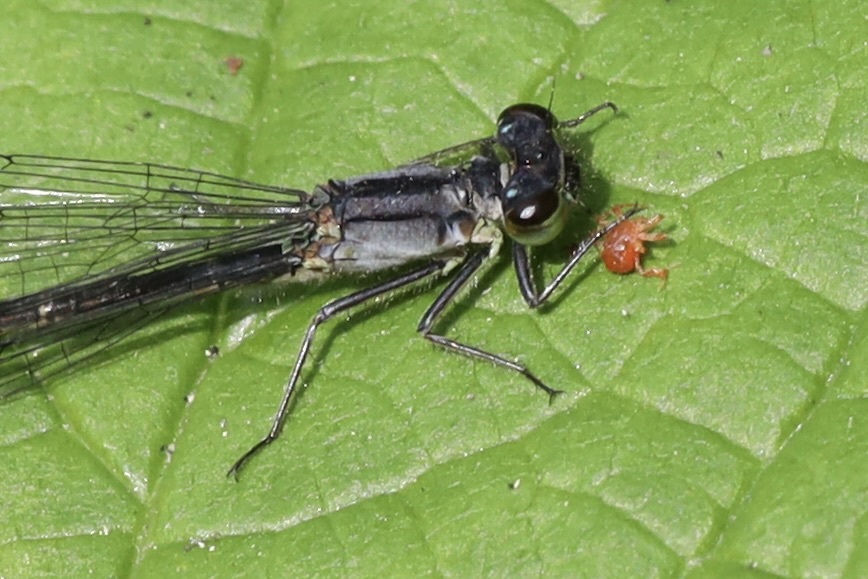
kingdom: Animalia
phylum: Arthropoda
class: Insecta
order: Odonata
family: Coenagrionidae
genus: Ischnura
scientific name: Ischnura cervula
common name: Pacific forktail
